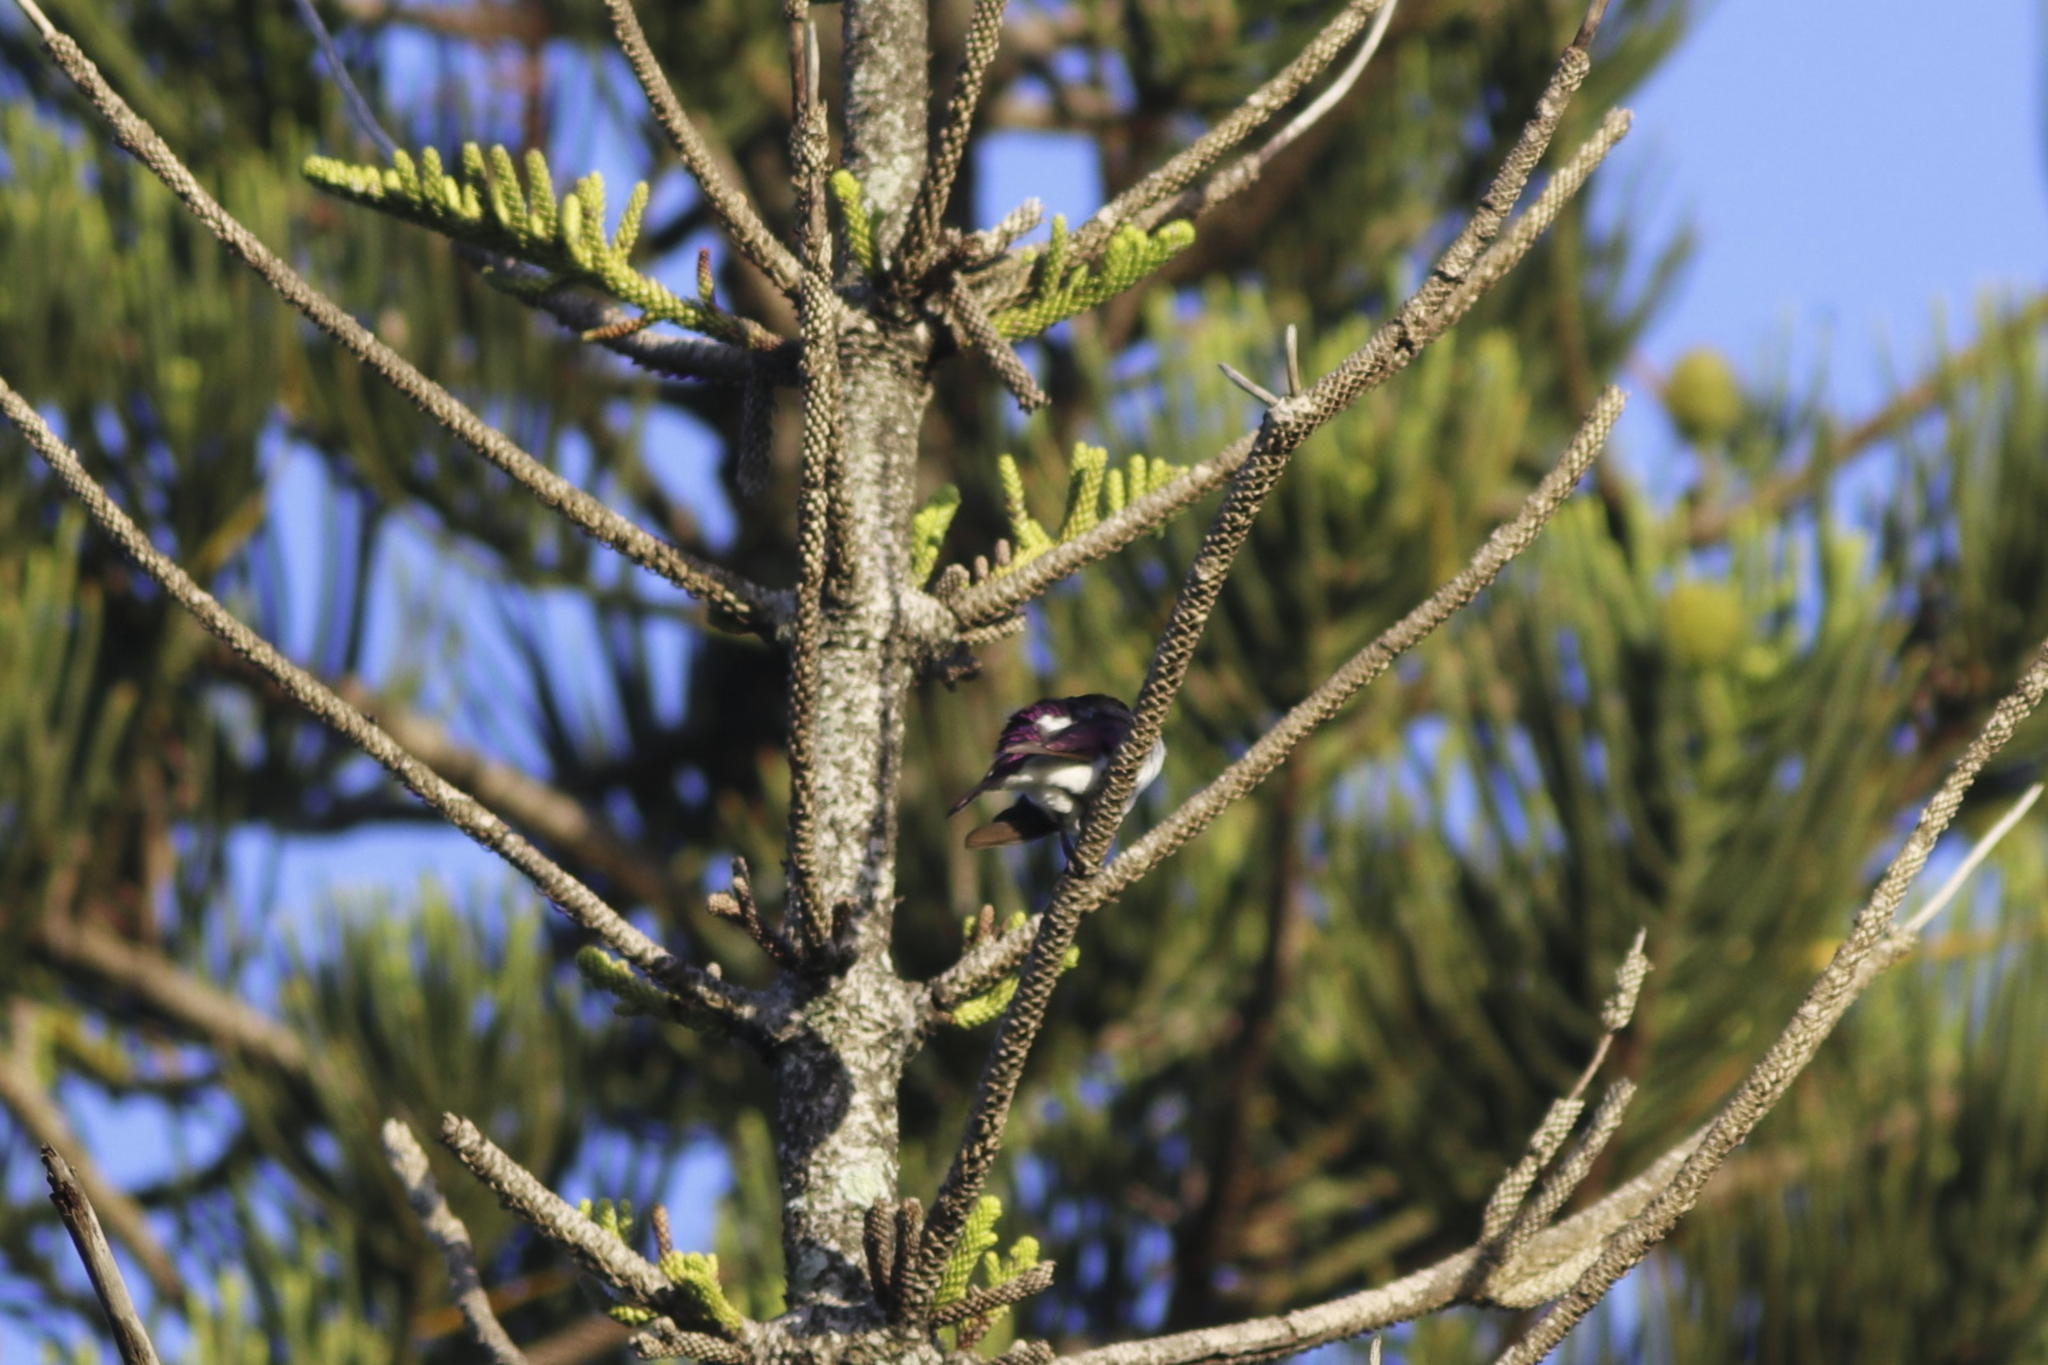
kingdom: Animalia
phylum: Chordata
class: Aves
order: Passeriformes
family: Sturnidae
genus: Cinnyricinclus
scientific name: Cinnyricinclus leucogaster
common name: Violet-backed starling
